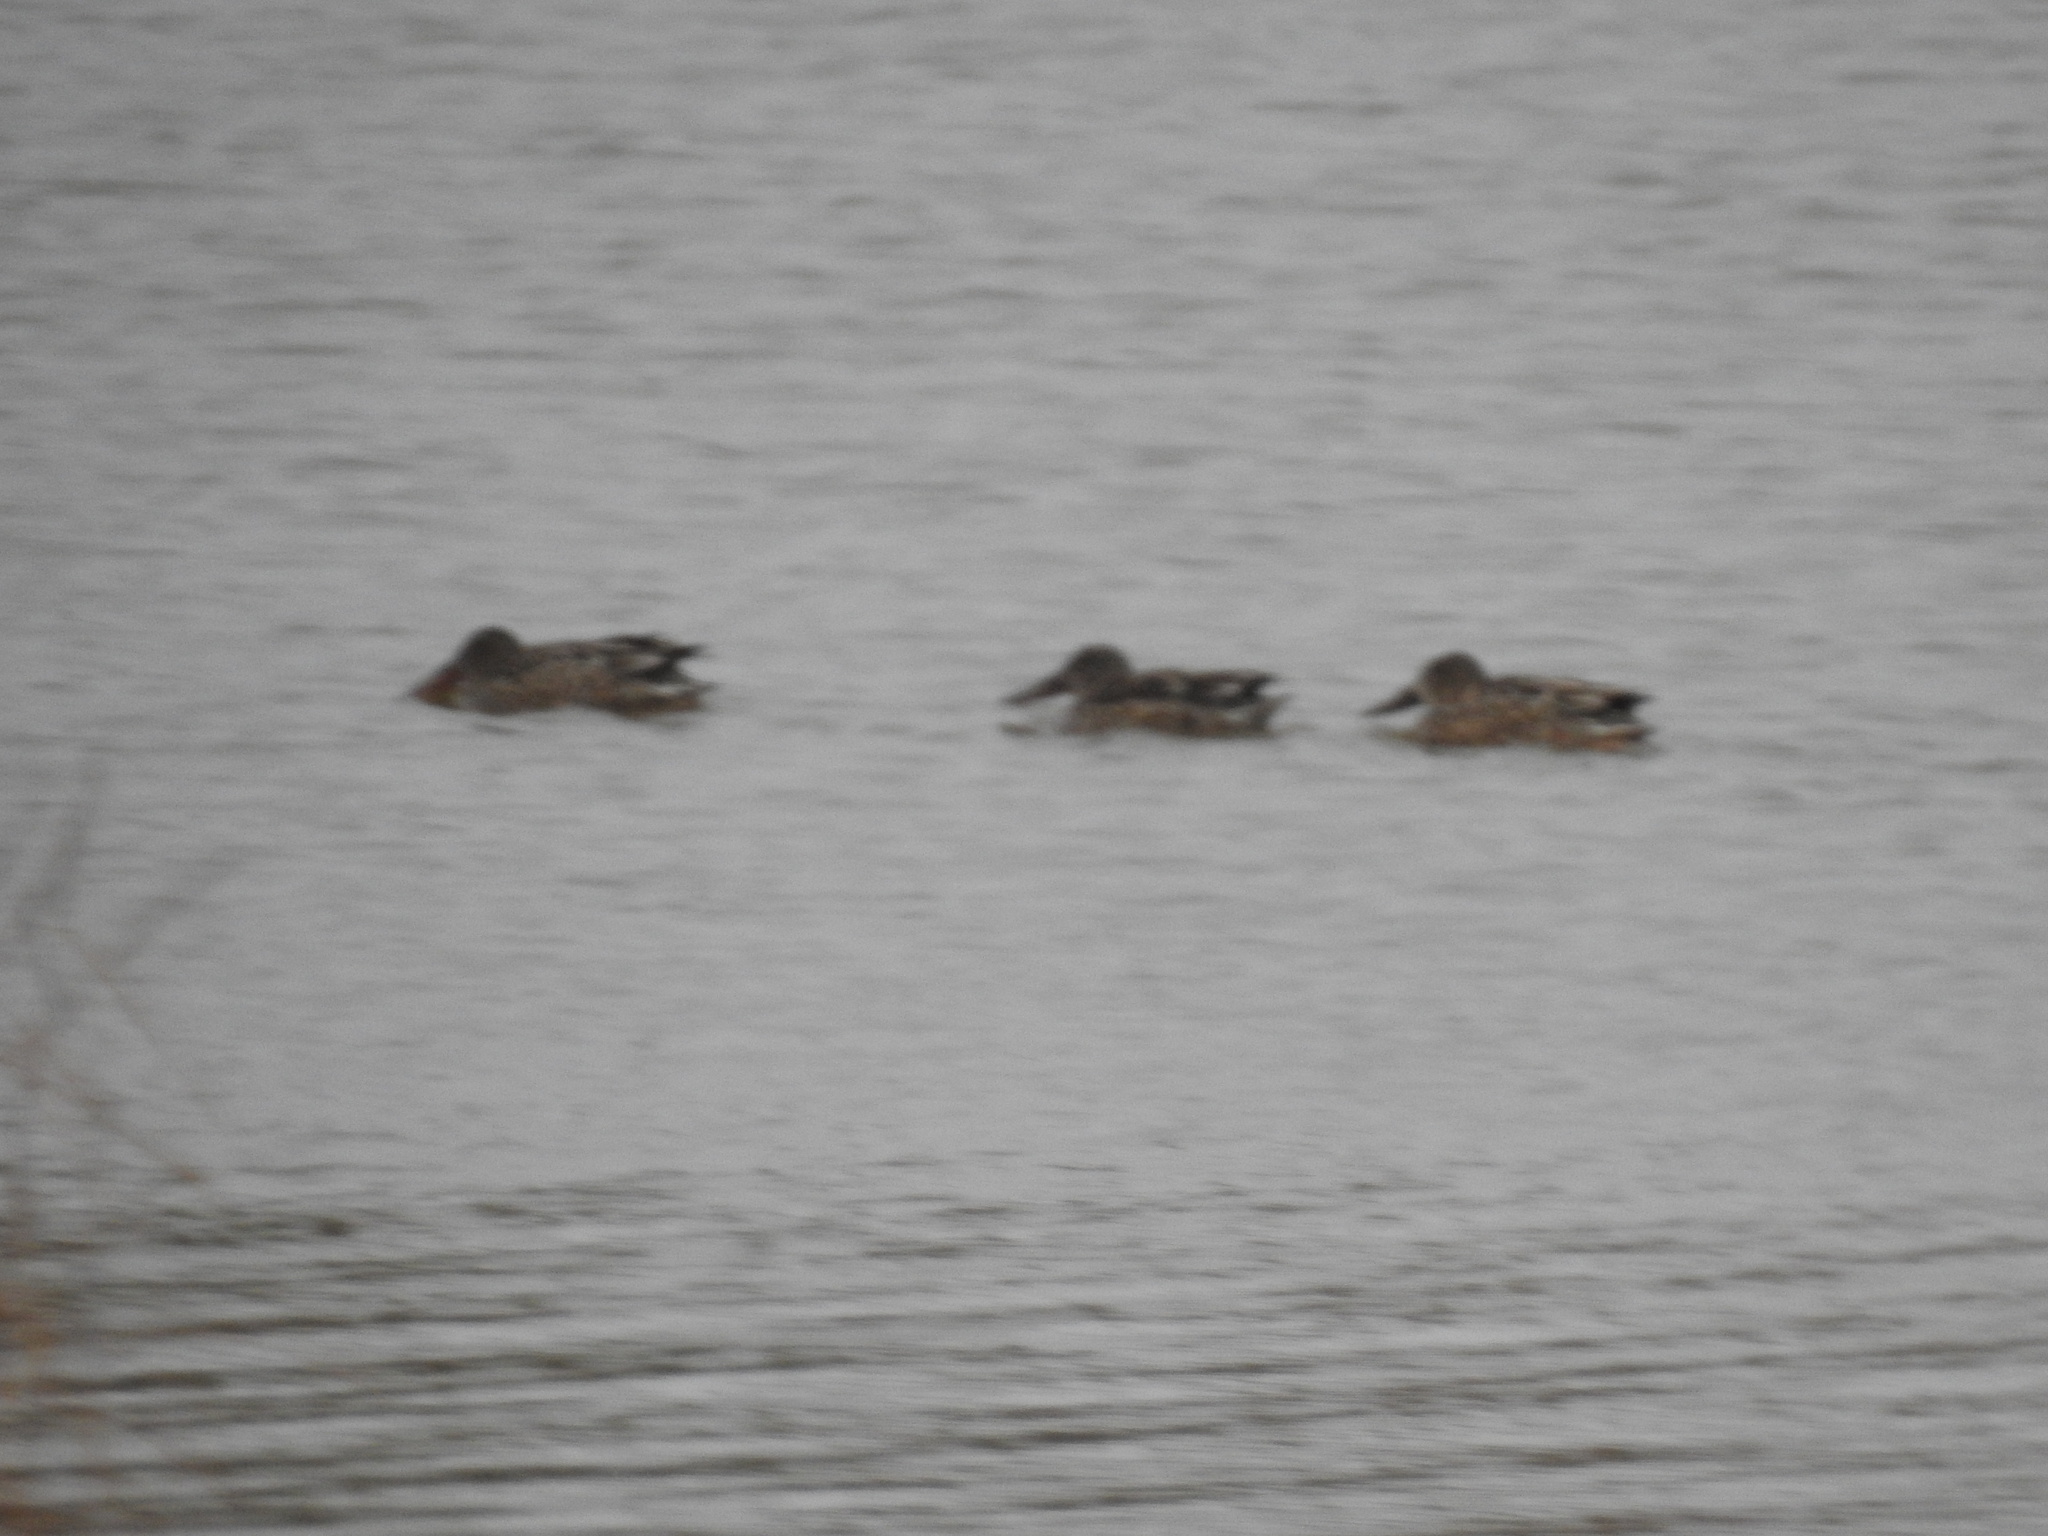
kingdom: Animalia
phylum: Chordata
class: Aves
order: Anseriformes
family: Anatidae
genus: Spatula
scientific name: Spatula clypeata
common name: Northern shoveler
